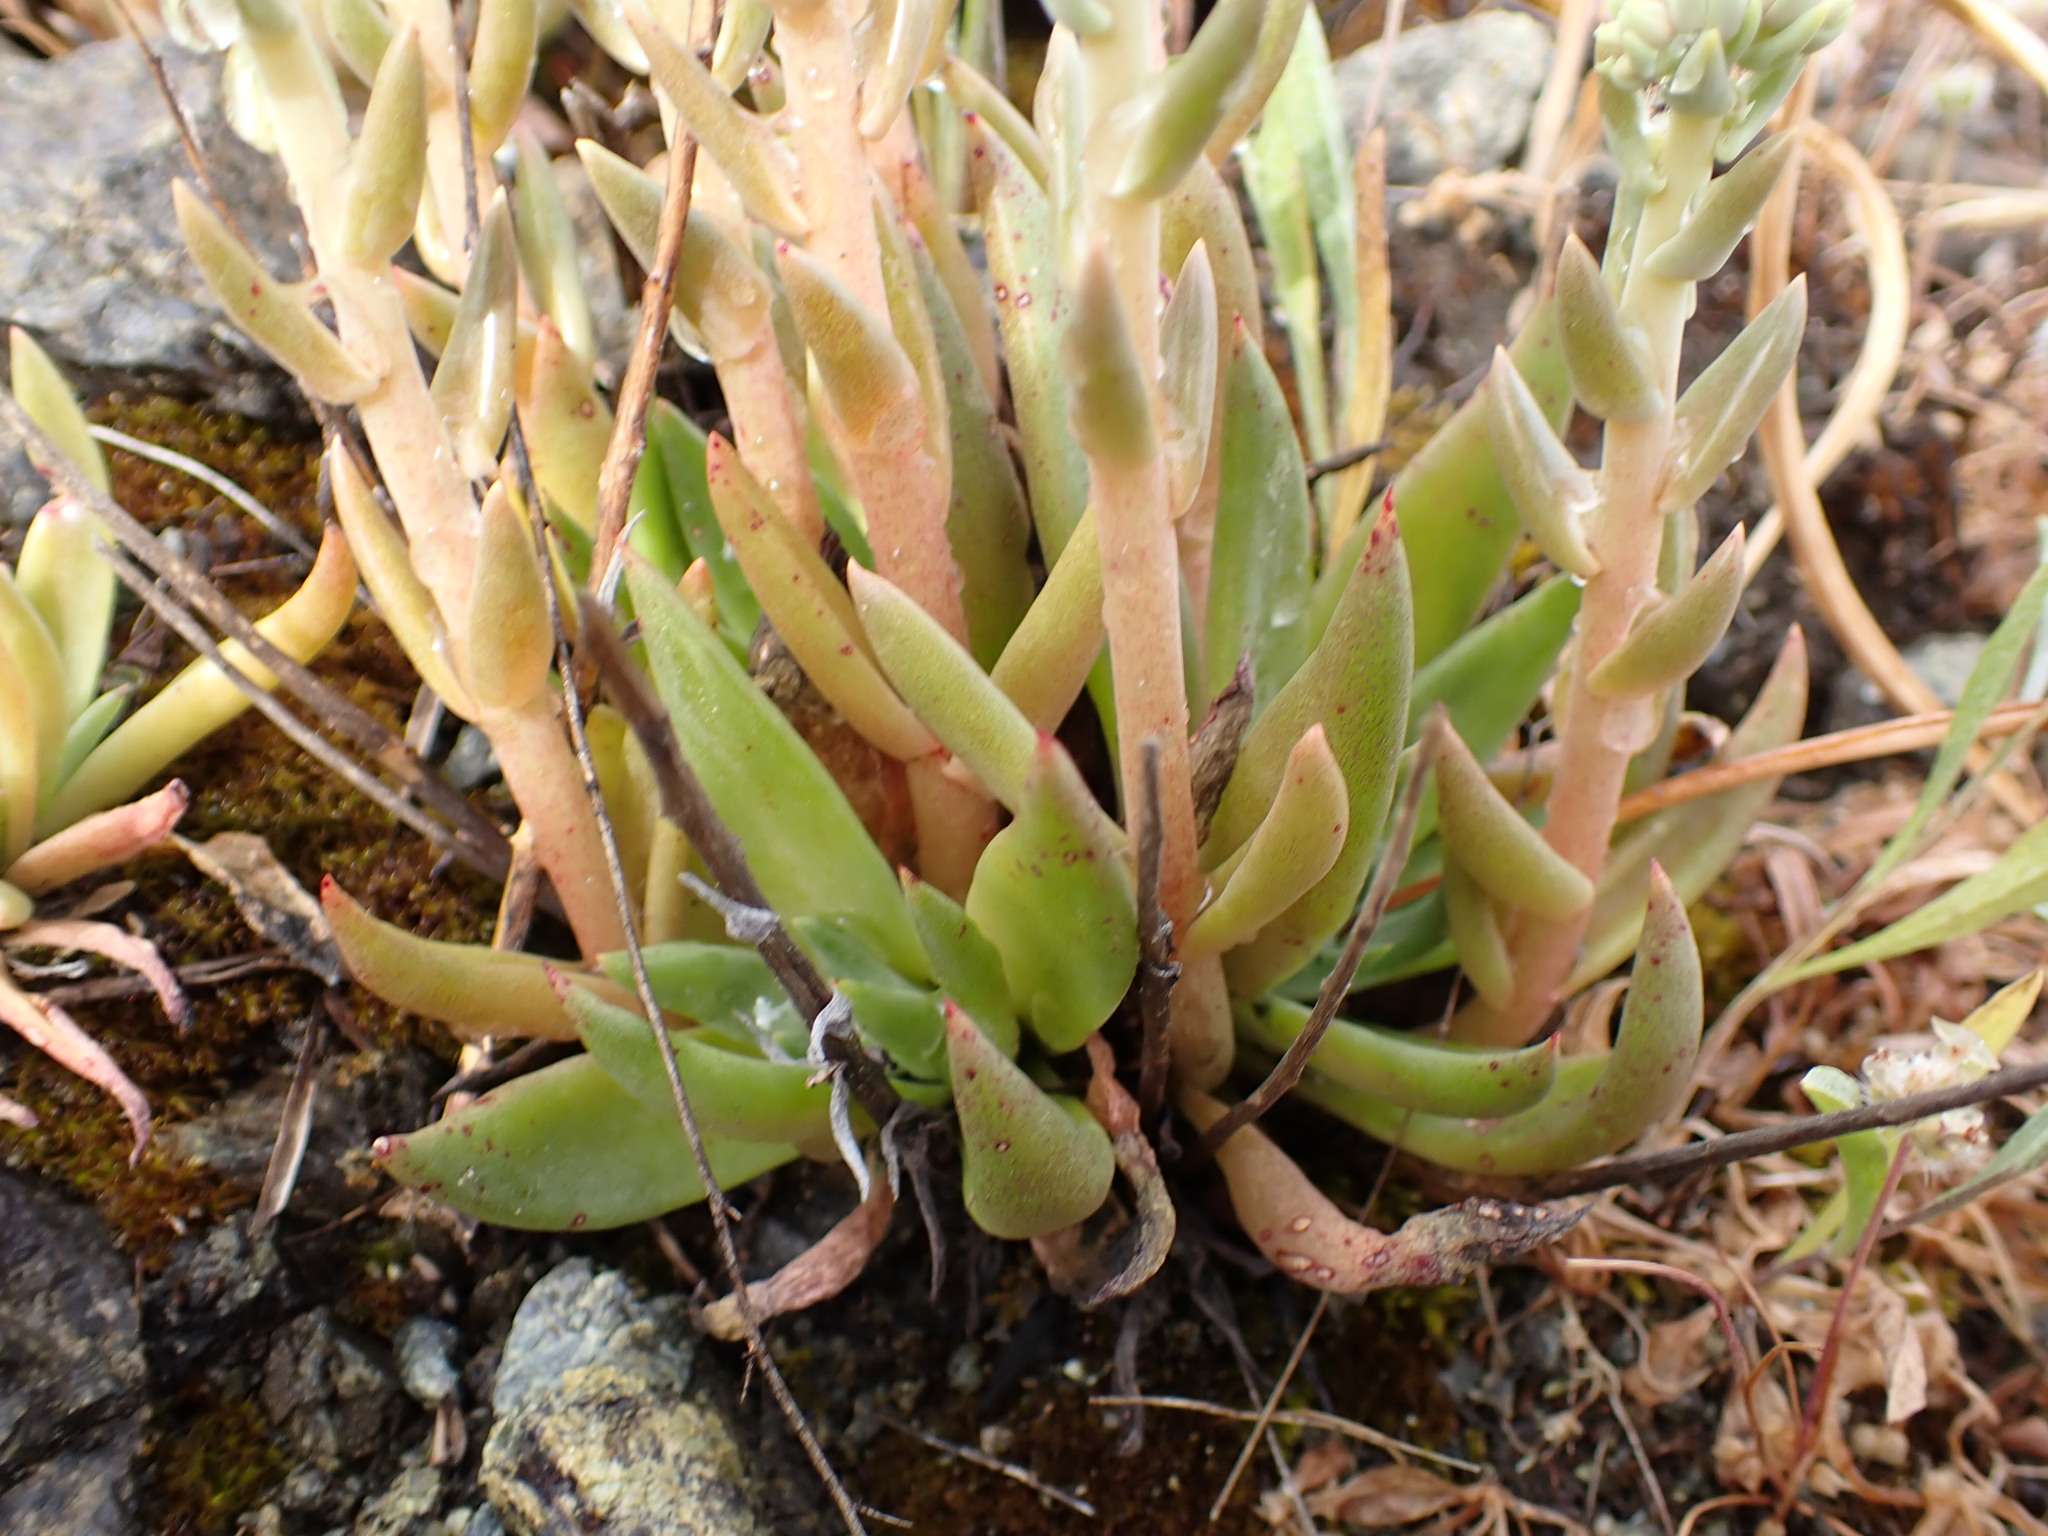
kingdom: Plantae
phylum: Tracheophyta
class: Magnoliopsida
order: Saxifragales
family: Crassulaceae
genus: Dudleya
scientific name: Dudleya abramsii
